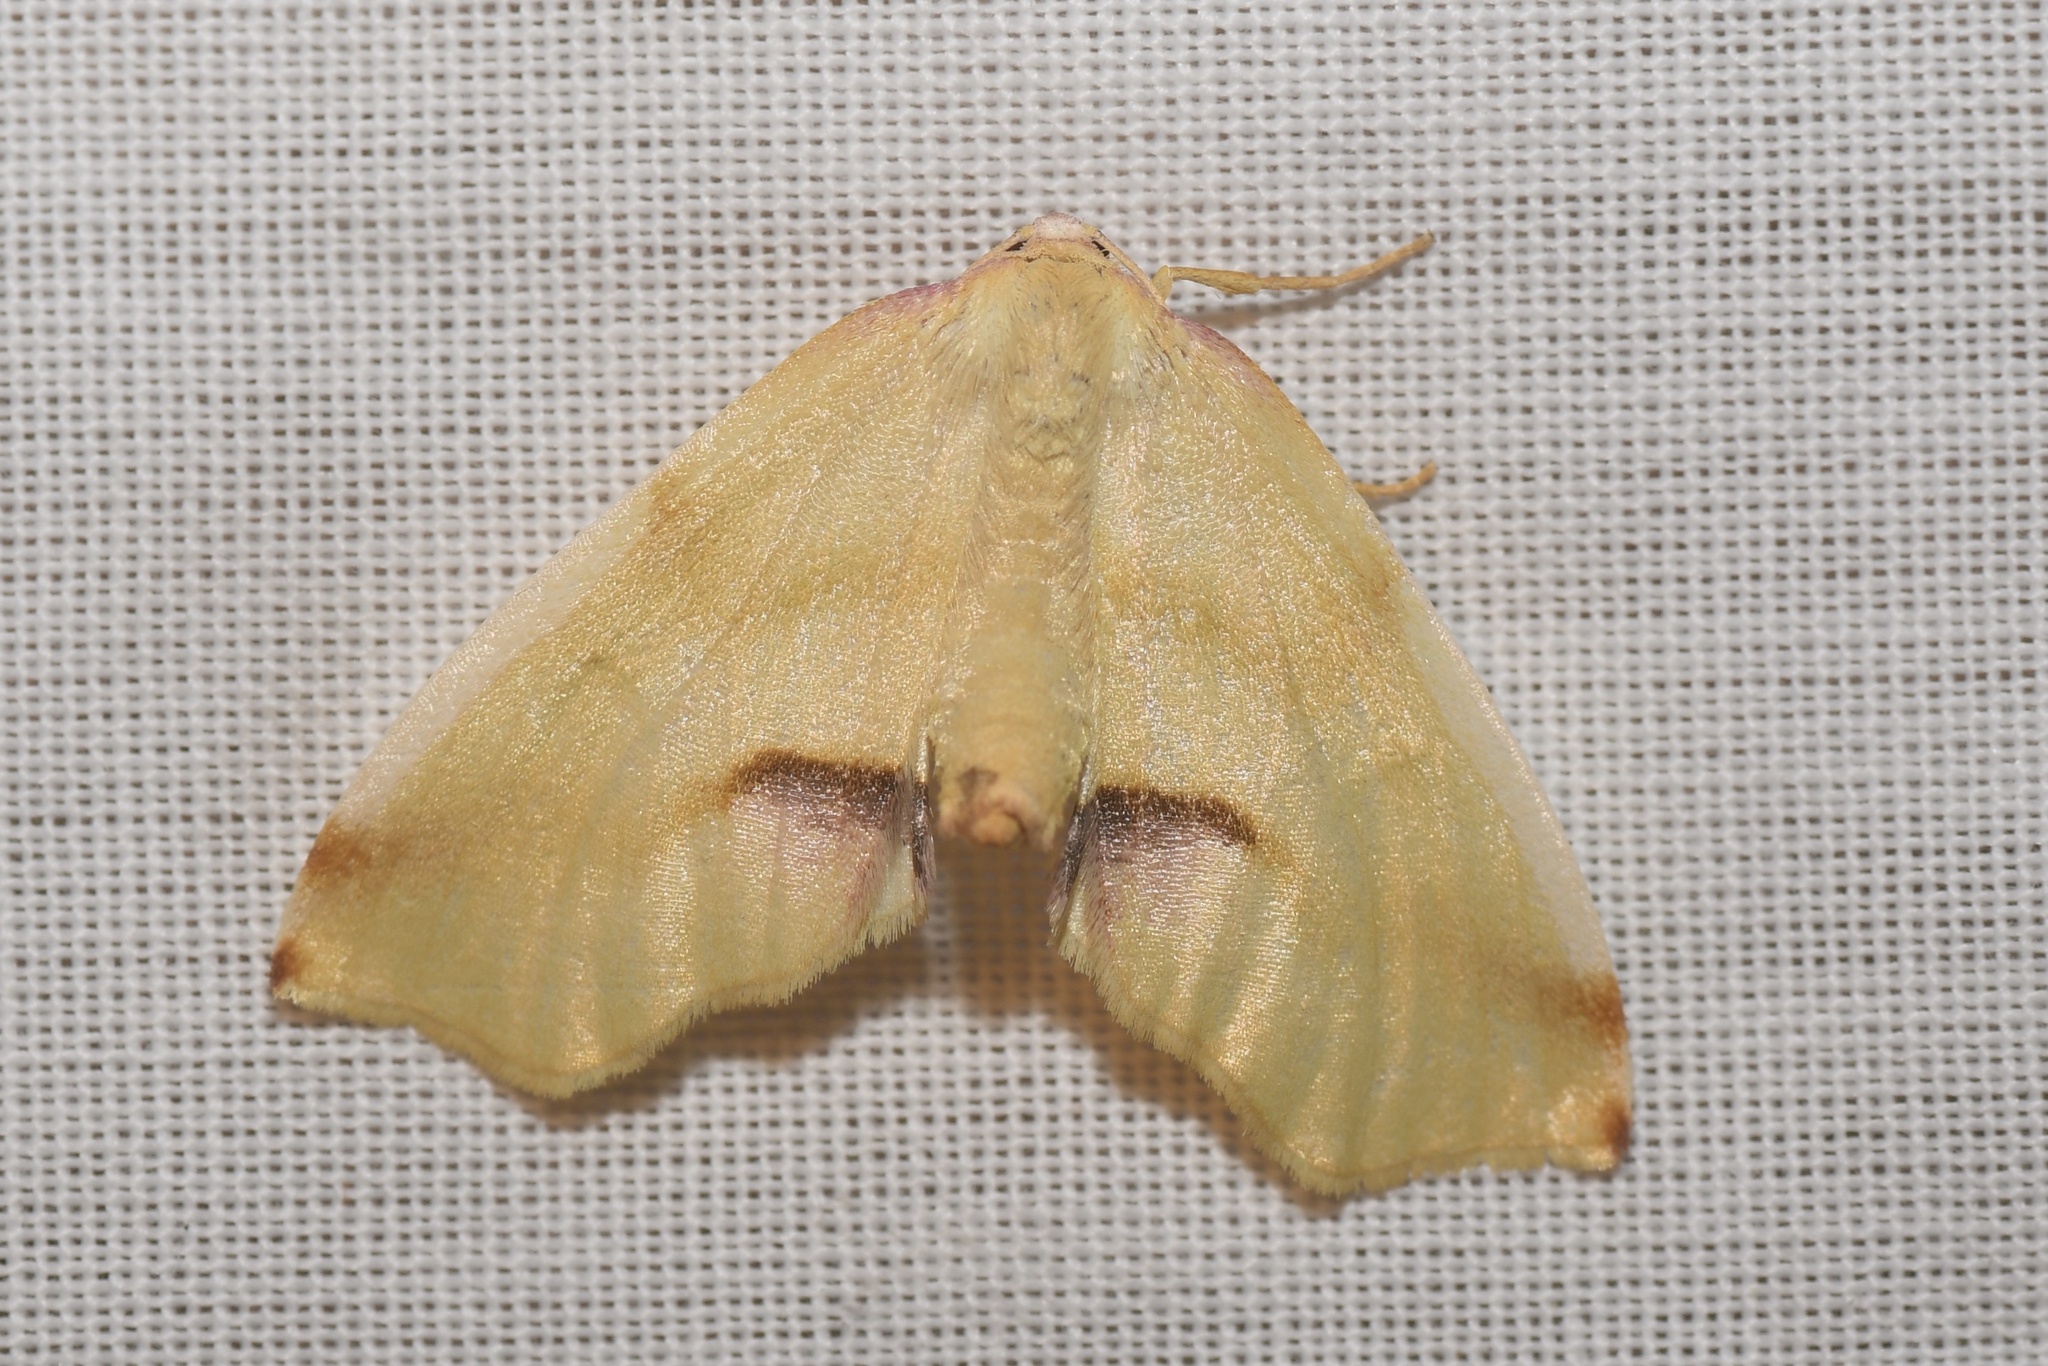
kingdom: Animalia
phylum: Arthropoda
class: Insecta
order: Lepidoptera
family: Geometridae
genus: Plagodis
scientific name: Plagodis serinaria
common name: Lemon plagodis
